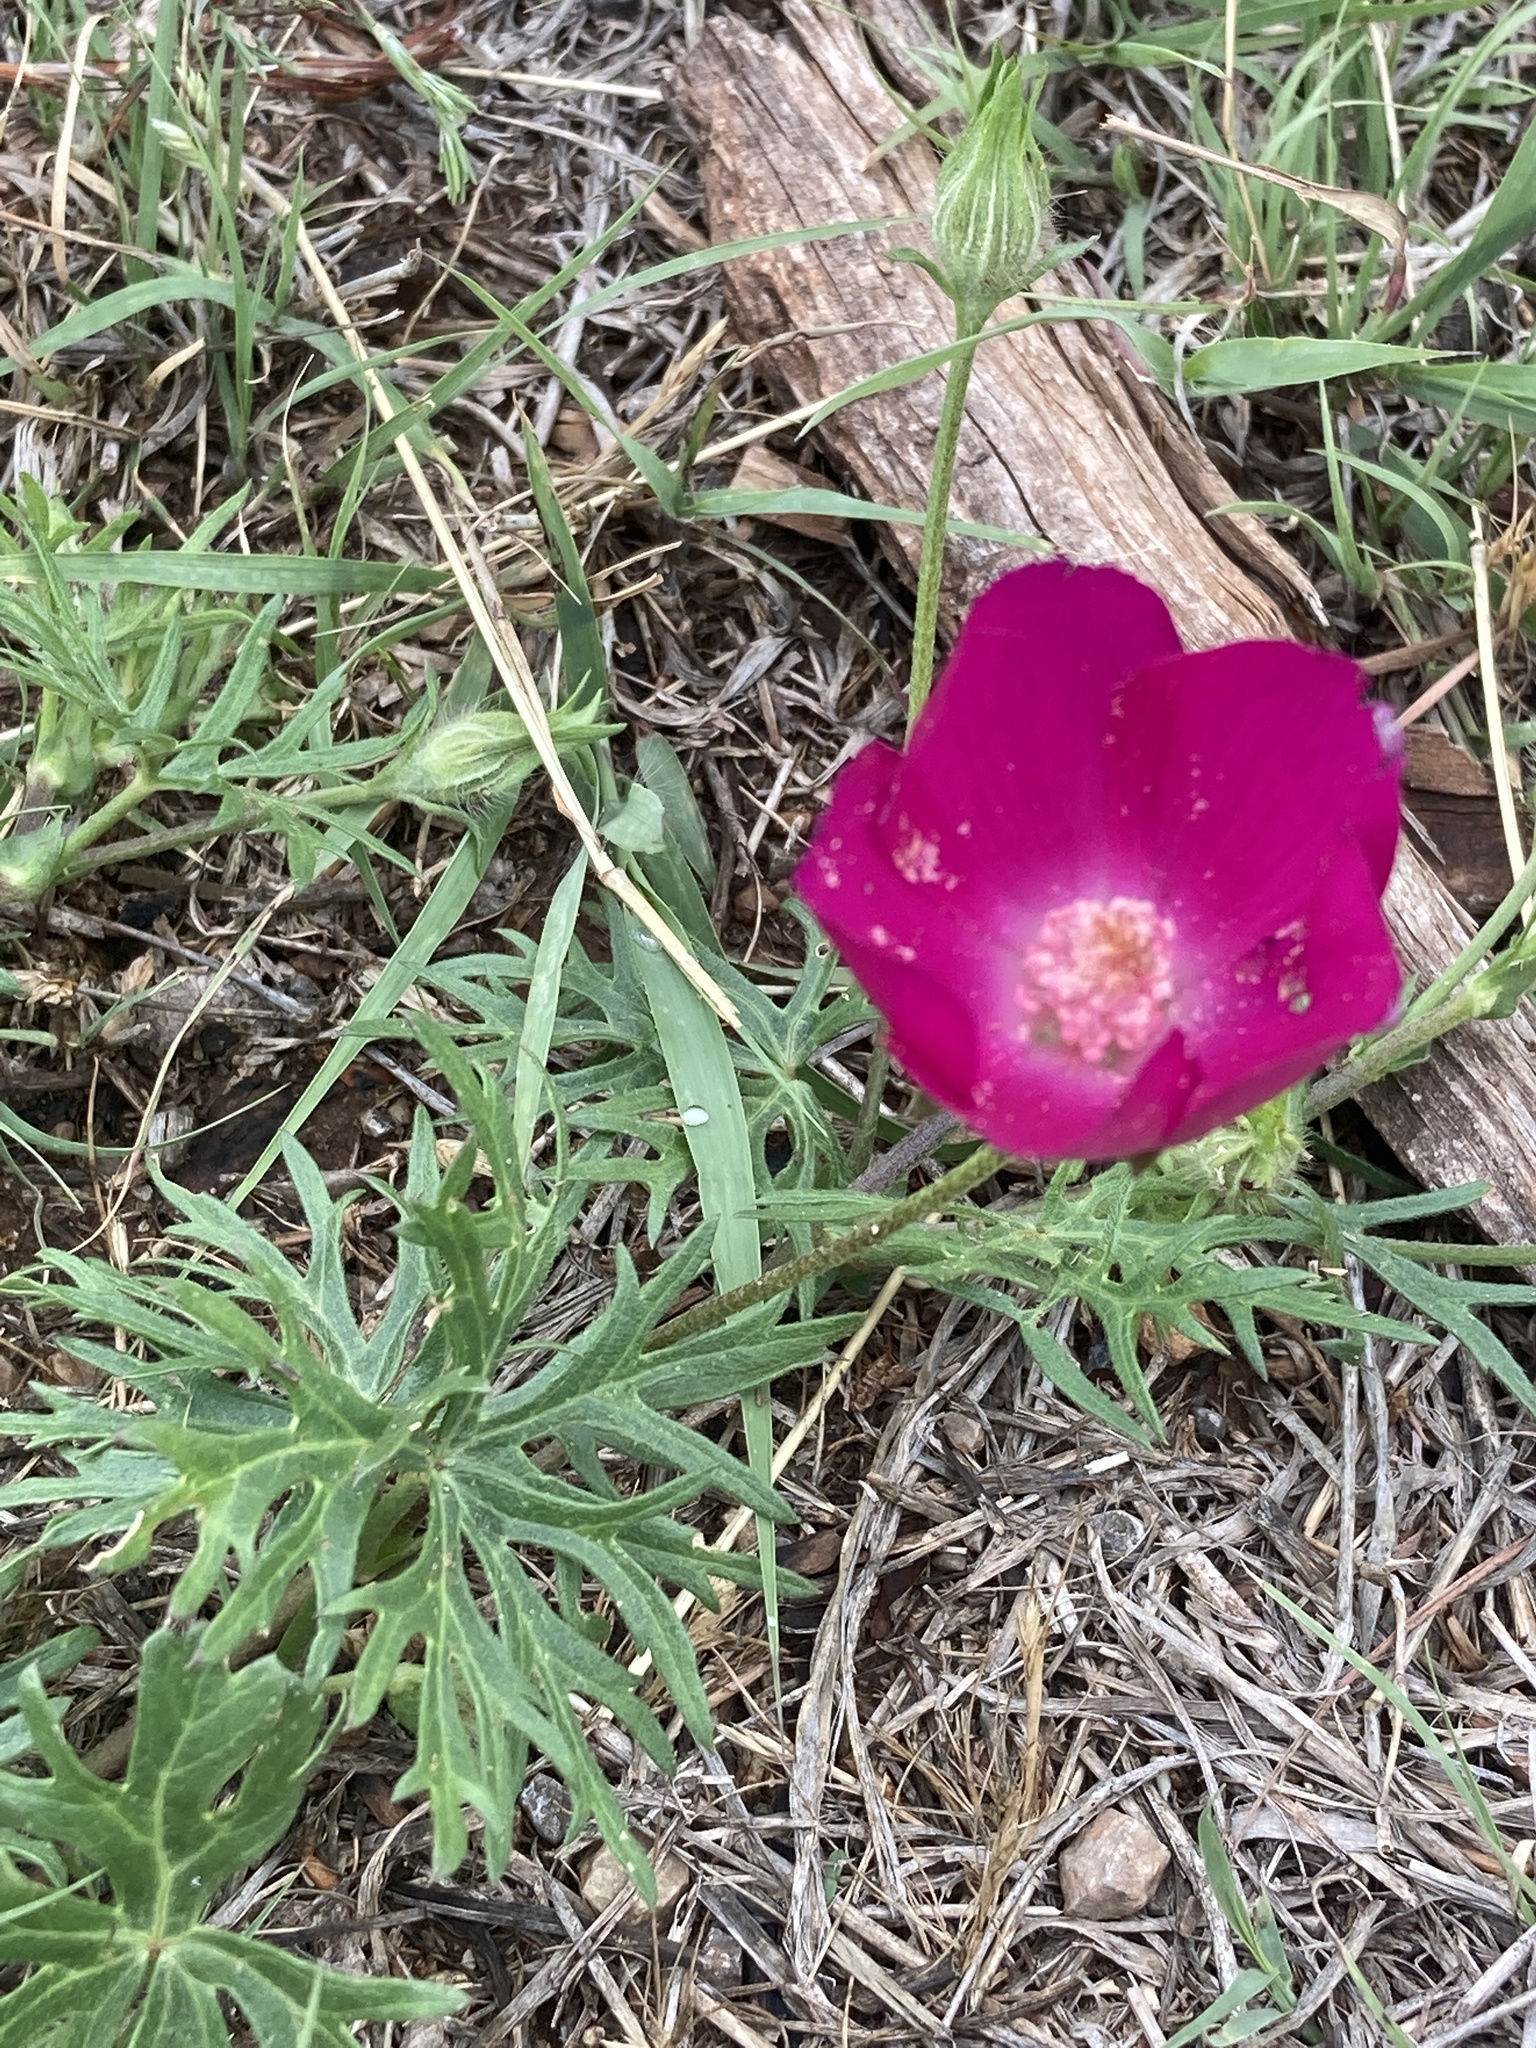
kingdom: Plantae
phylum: Tracheophyta
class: Magnoliopsida
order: Malvales
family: Malvaceae
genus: Callirhoe
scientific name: Callirhoe involucrata
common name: Purple poppy-mallow
